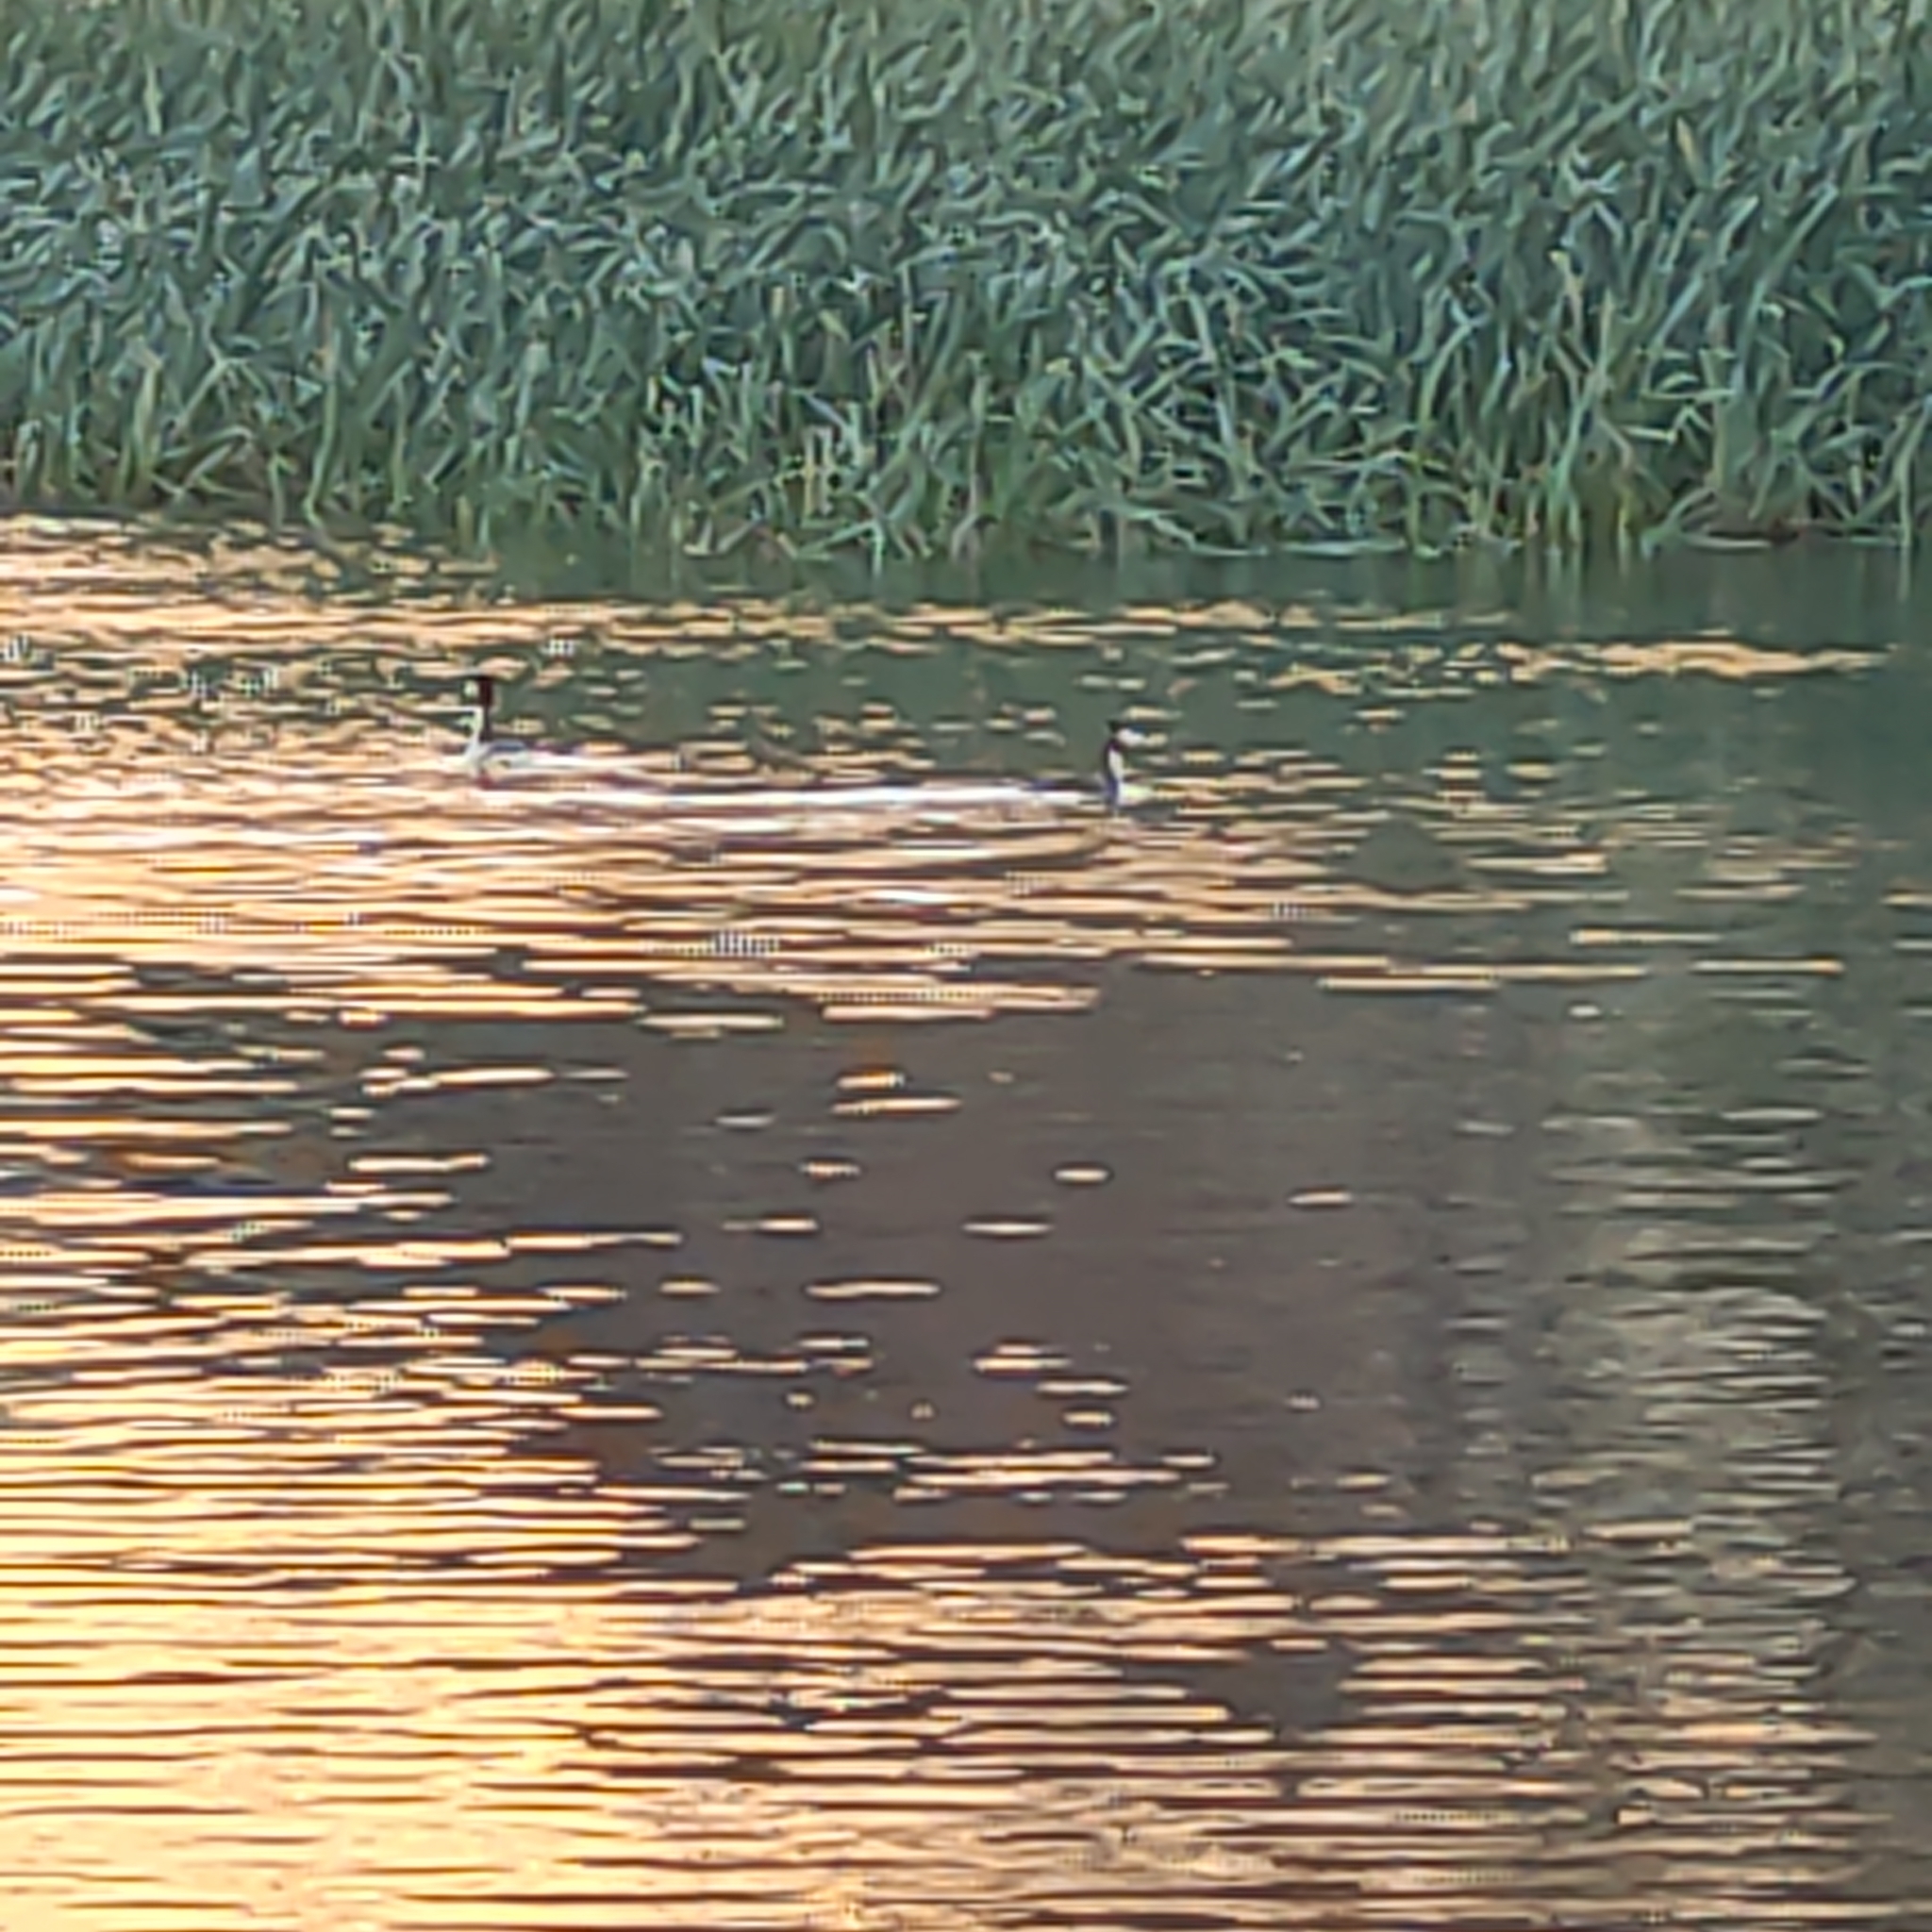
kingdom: Animalia
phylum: Chordata
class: Aves
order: Podicipediformes
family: Podicipedidae
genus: Podiceps
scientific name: Podiceps cristatus
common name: Great crested grebe
